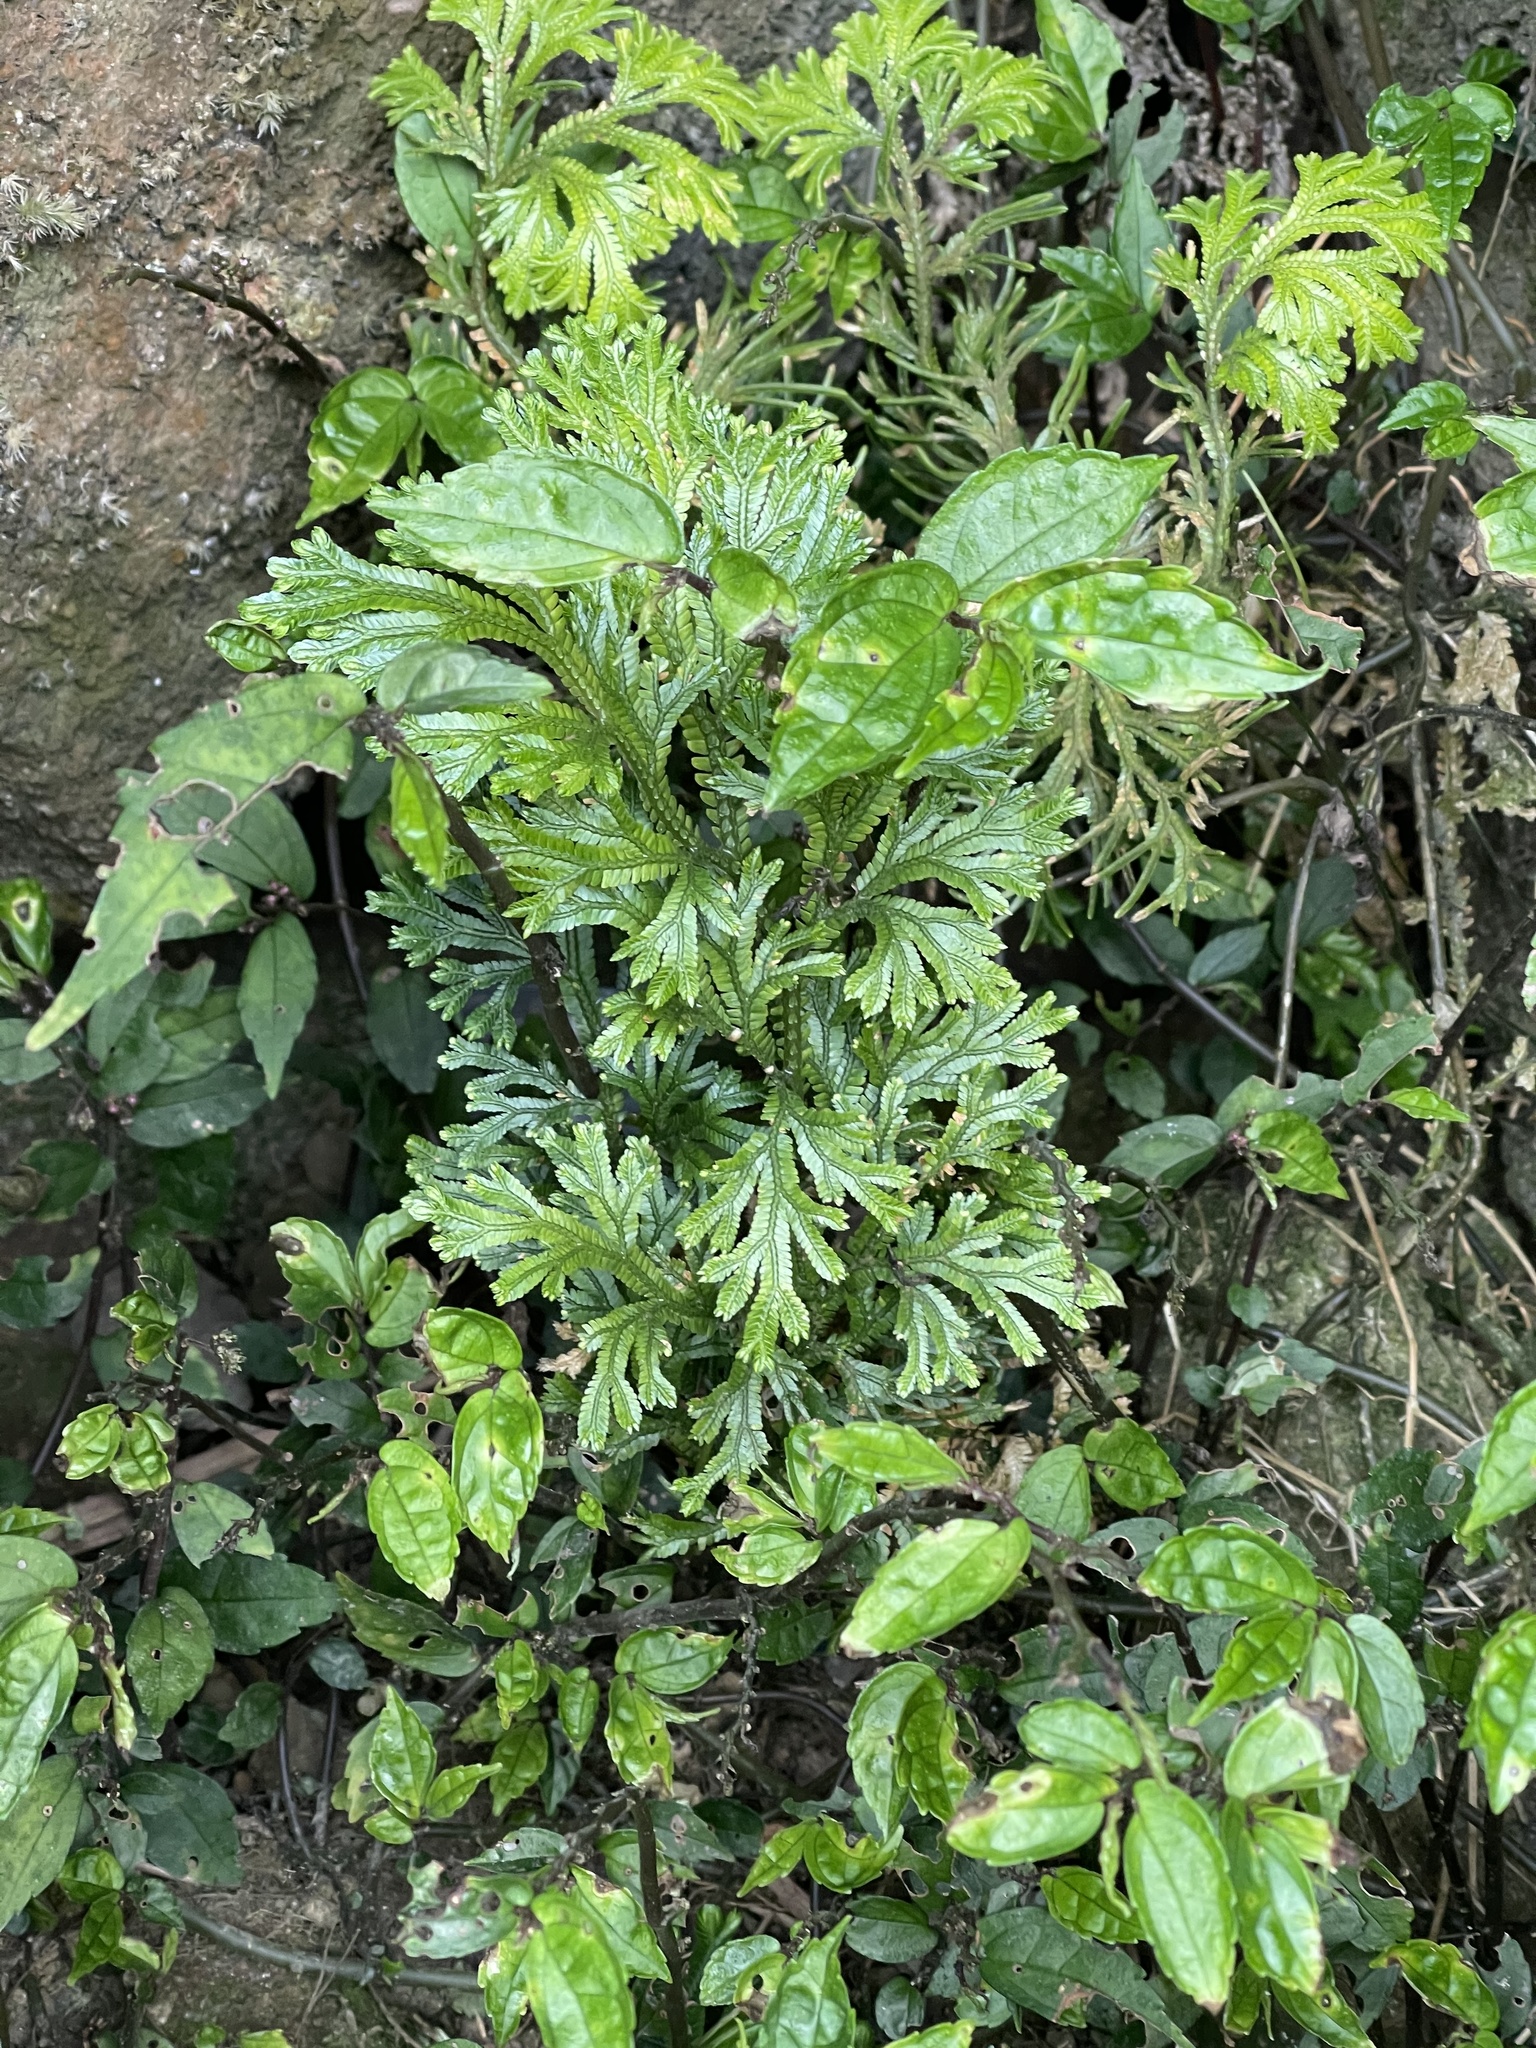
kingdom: Plantae
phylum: Tracheophyta
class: Lycopodiopsida
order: Selaginellales
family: Selaginellaceae
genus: Selaginella
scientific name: Selaginella doederleinii
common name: Greater selaginella
